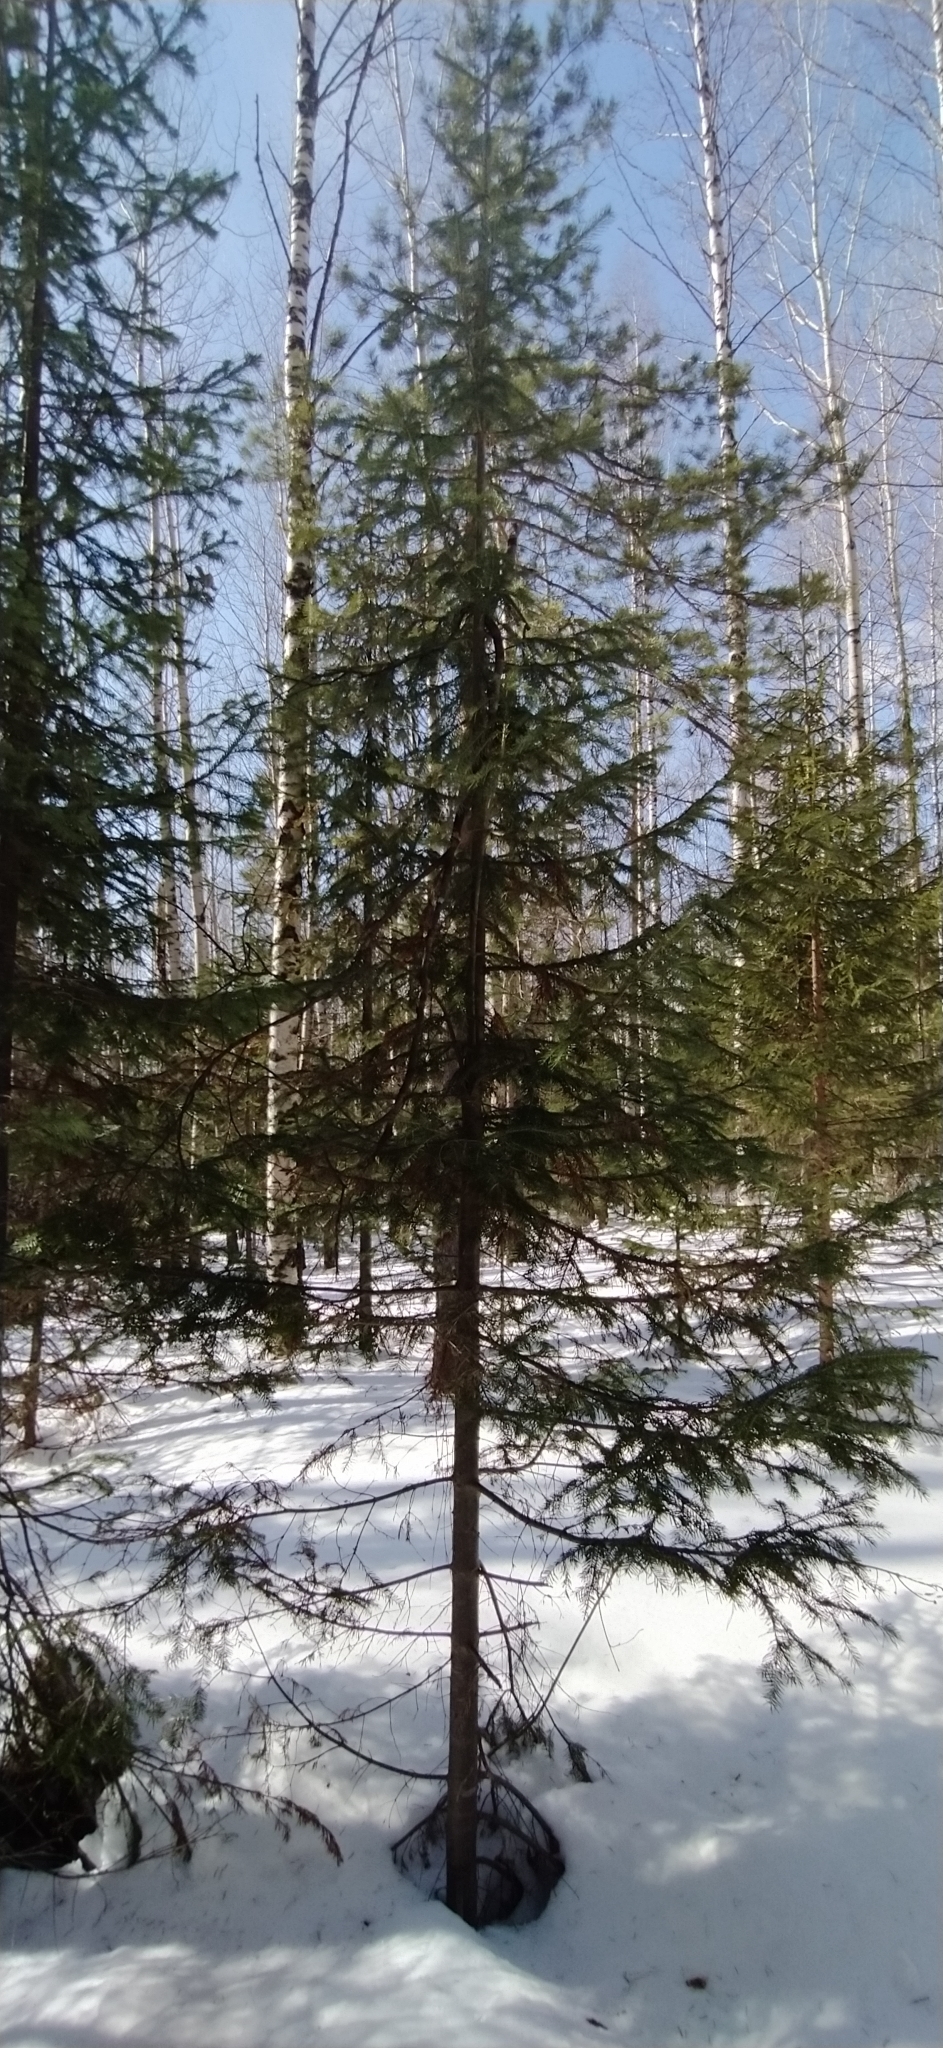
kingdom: Plantae
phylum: Tracheophyta
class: Pinopsida
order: Pinales
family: Pinaceae
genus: Abies
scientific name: Abies sibirica
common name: Siberian fir
